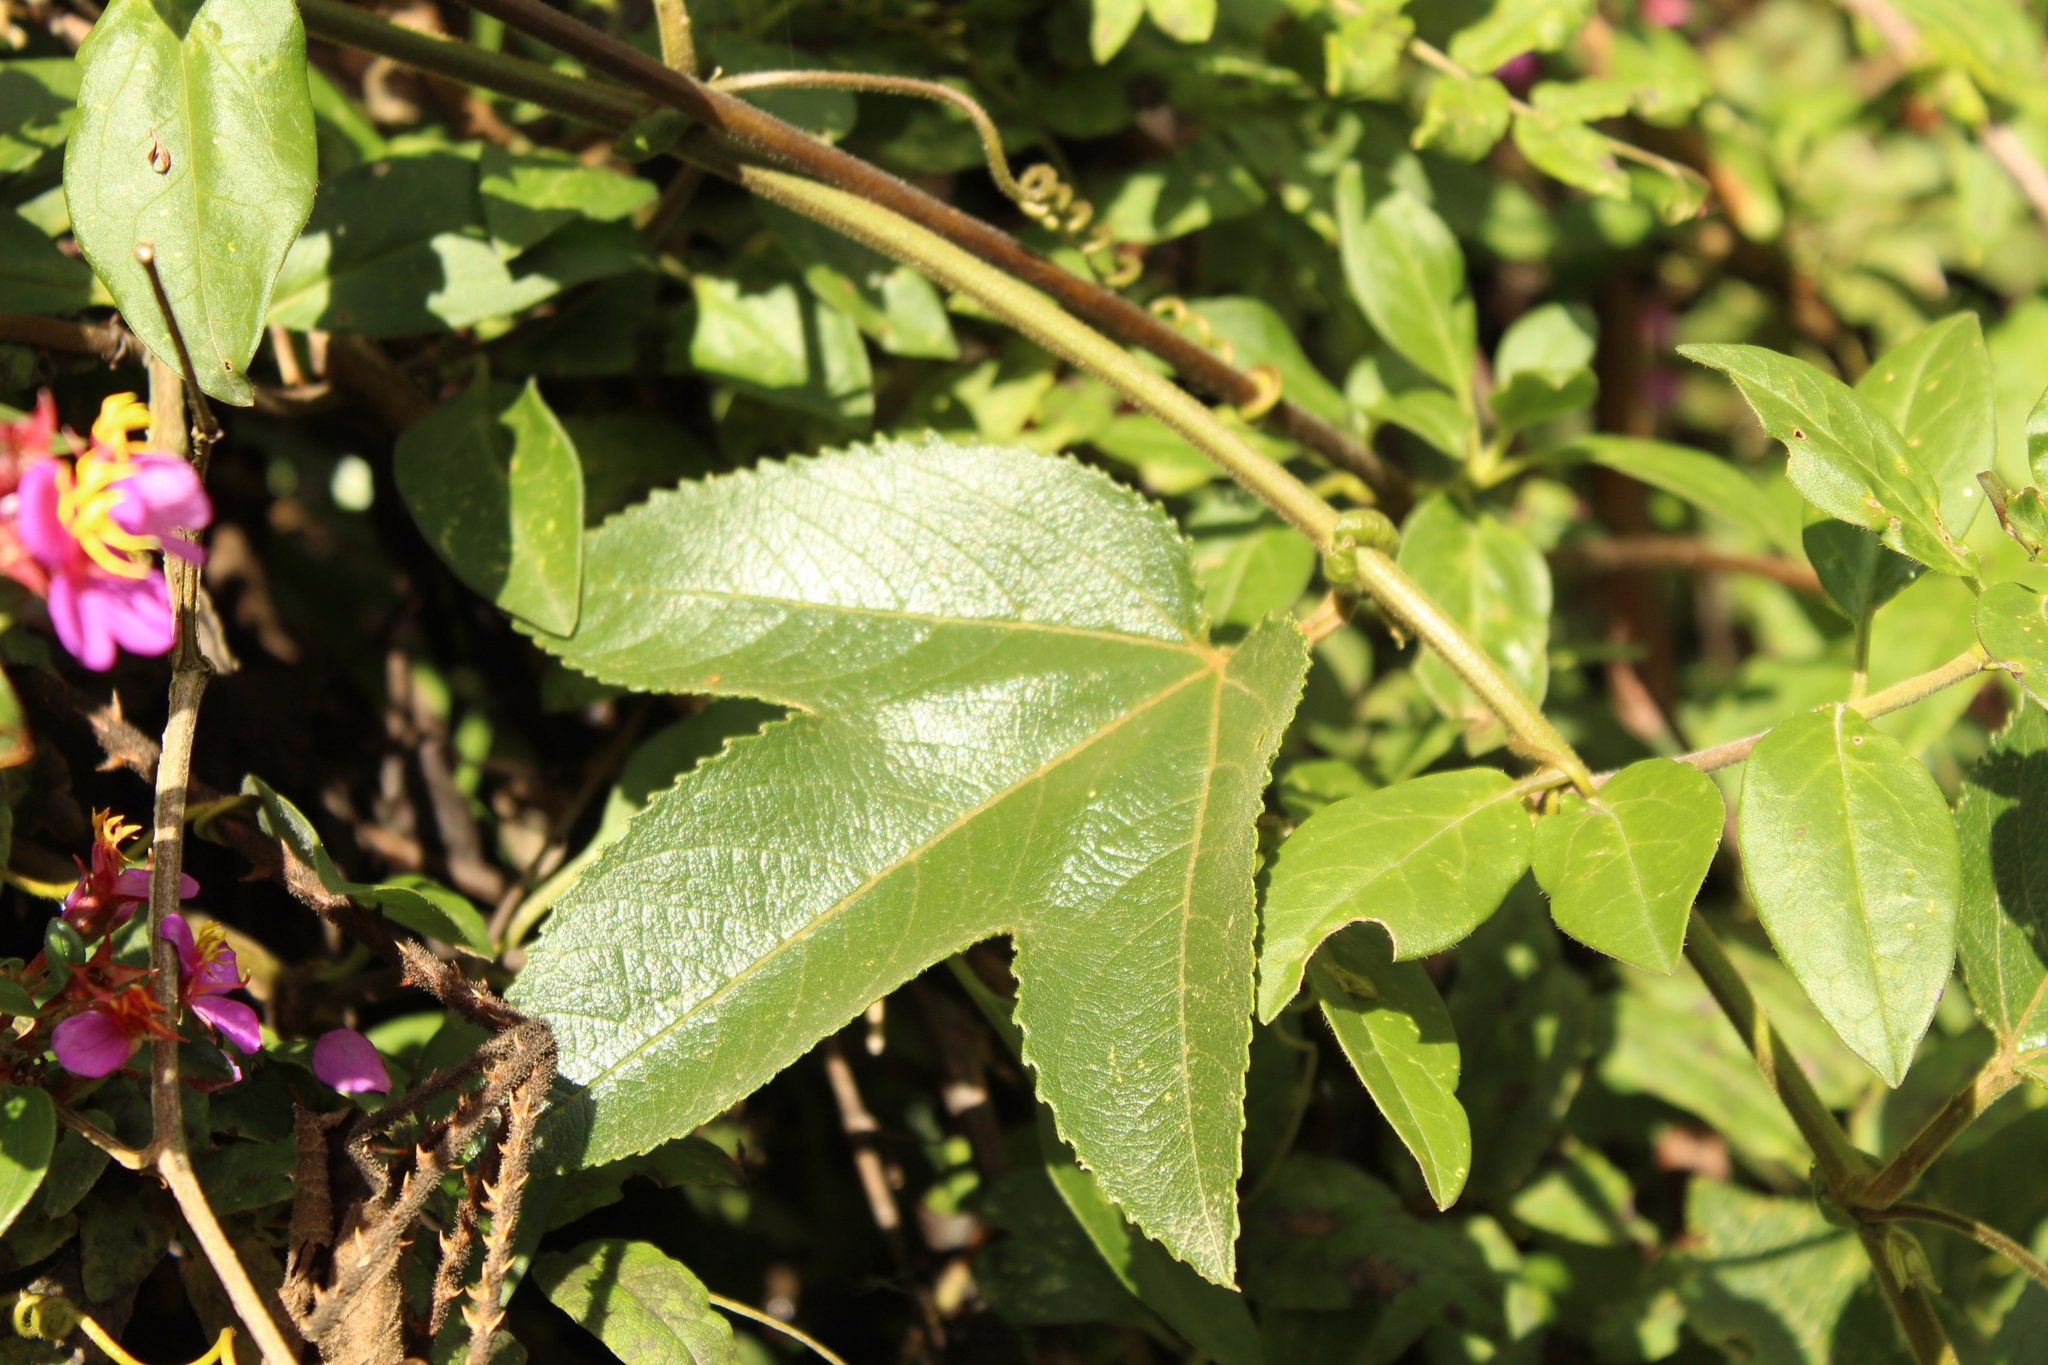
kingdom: Plantae
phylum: Tracheophyta
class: Magnoliopsida
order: Malpighiales
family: Passifloraceae
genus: Passiflora
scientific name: Passiflora mixta
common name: Passion flower
